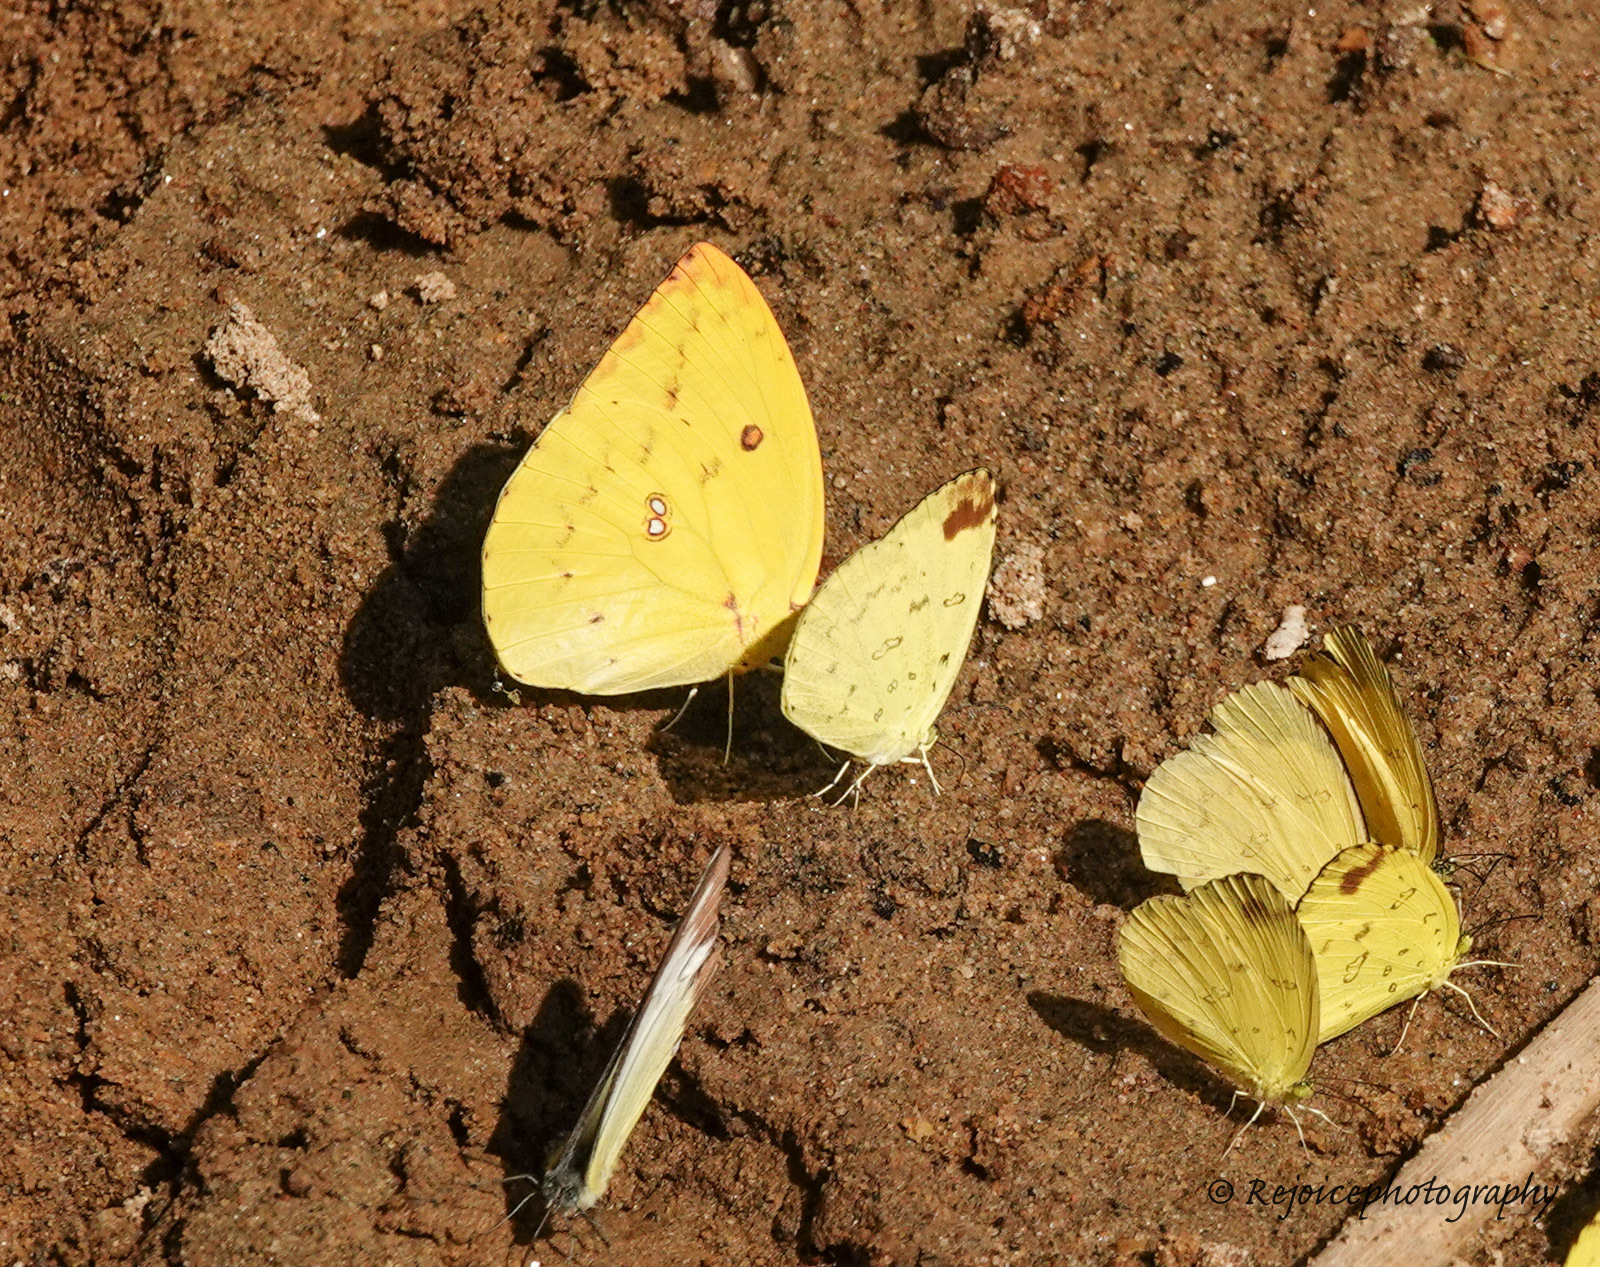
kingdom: Animalia
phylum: Arthropoda
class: Insecta
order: Lepidoptera
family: Pieridae
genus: Catopsilia
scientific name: Catopsilia pomona
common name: Common emigrant
